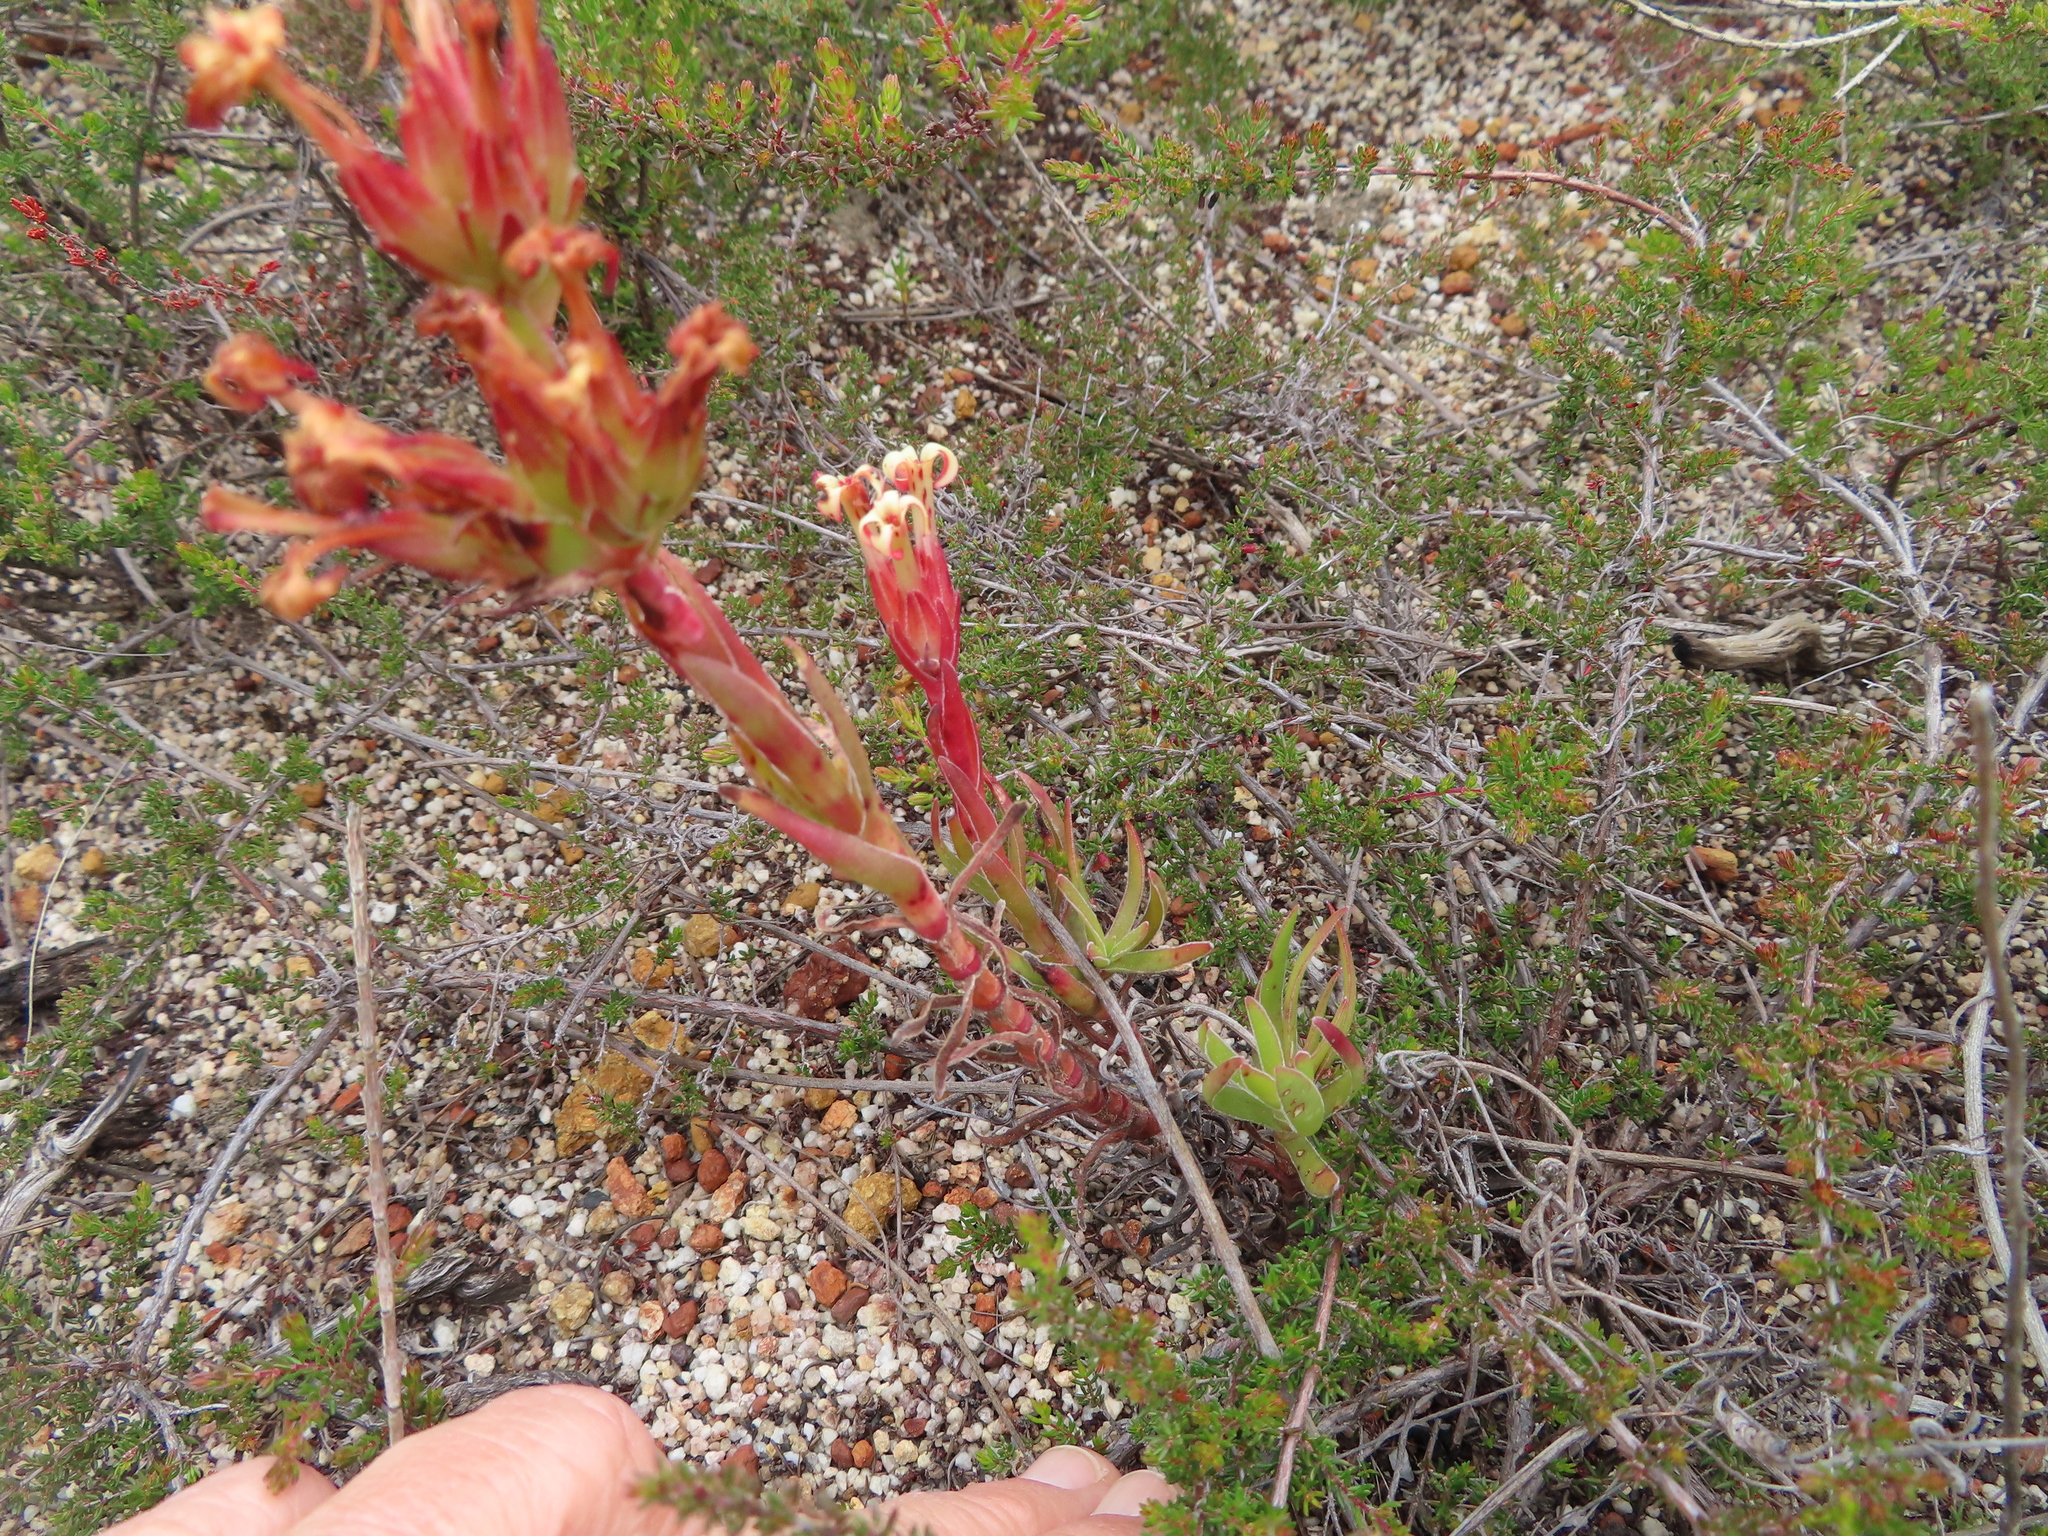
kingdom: Plantae
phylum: Tracheophyta
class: Magnoliopsida
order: Saxifragales
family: Crassulaceae
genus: Crassula
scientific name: Crassula fascicularis
